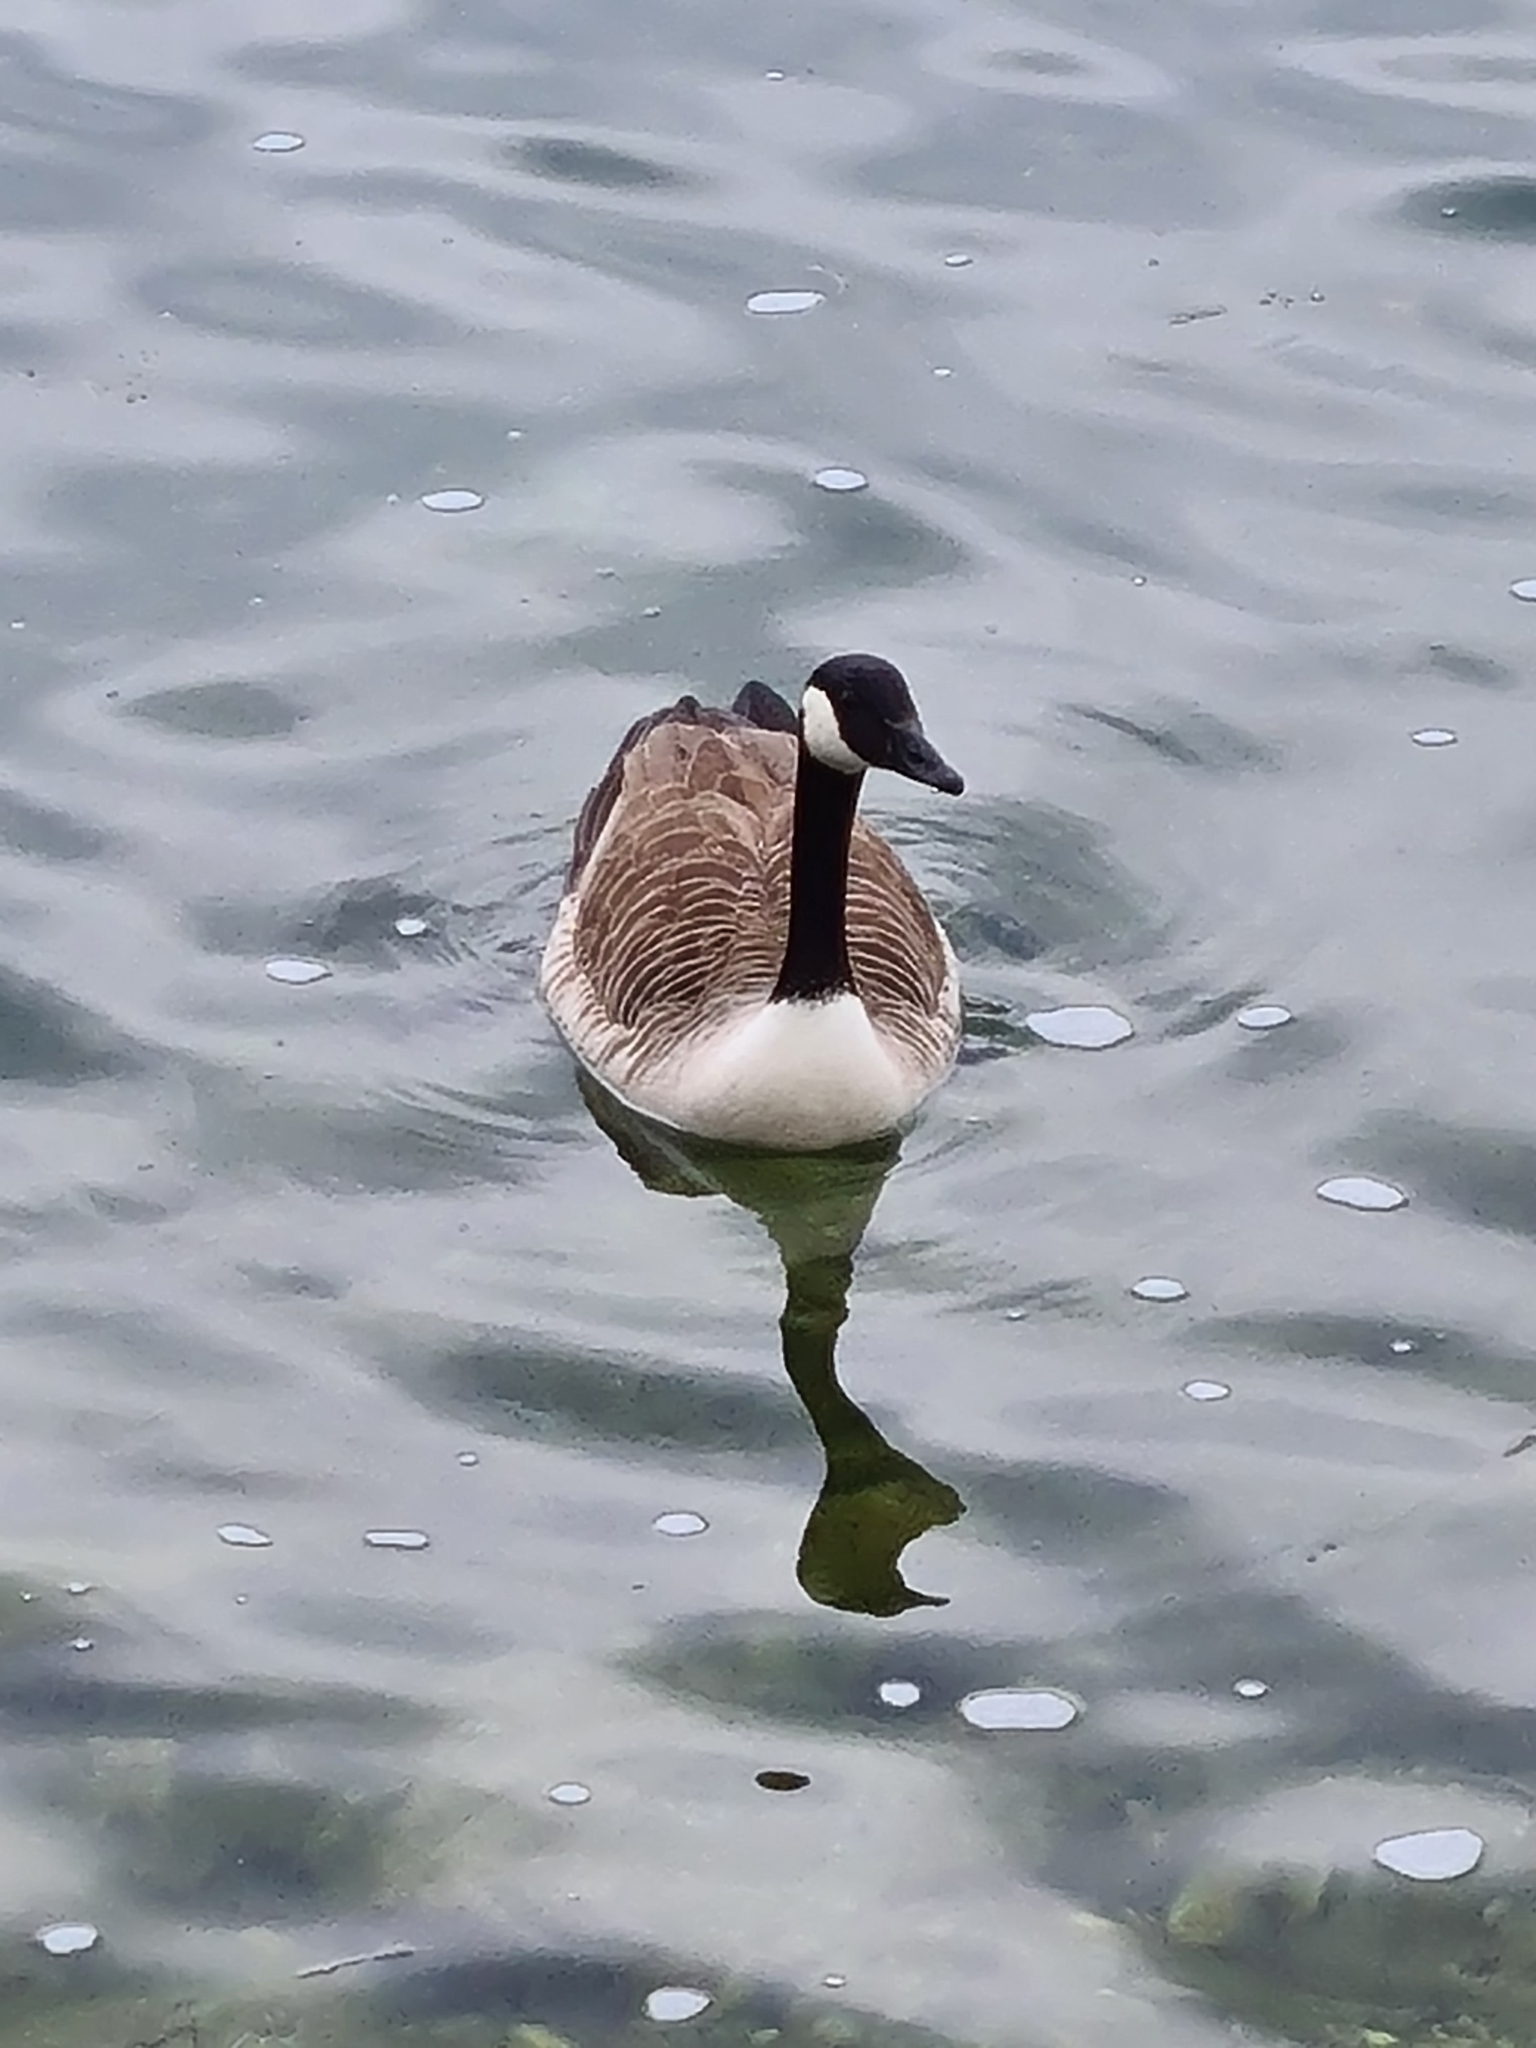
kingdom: Animalia
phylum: Chordata
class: Aves
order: Anseriformes
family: Anatidae
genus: Branta
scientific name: Branta canadensis
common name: Canada goose
